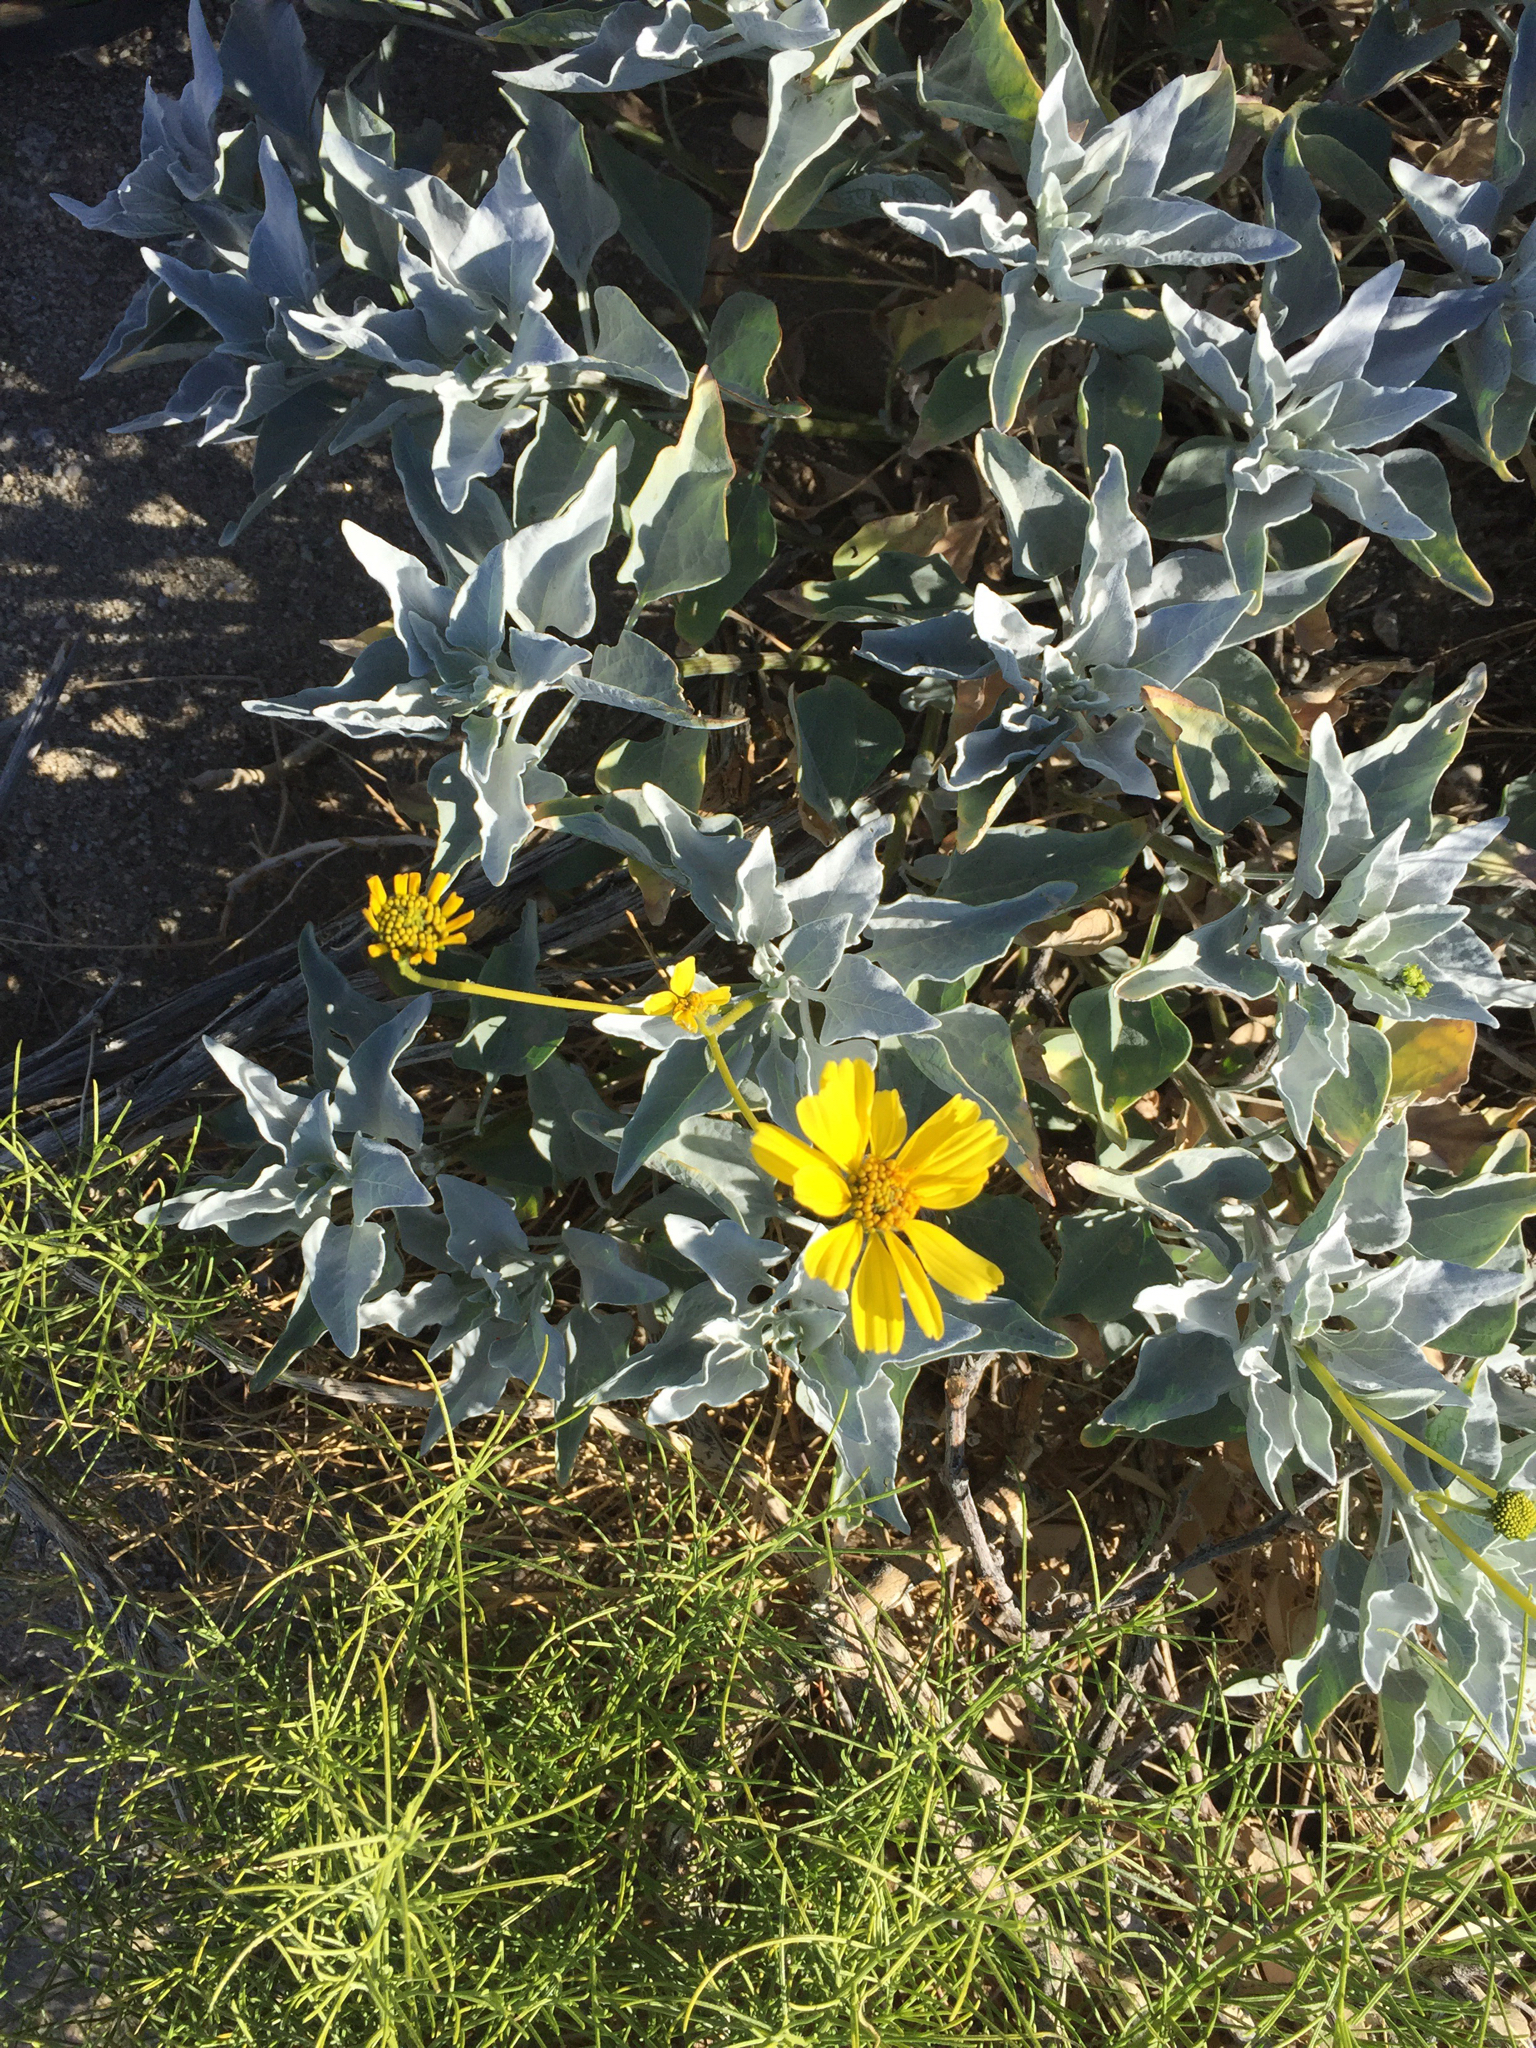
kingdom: Plantae
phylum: Tracheophyta
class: Magnoliopsida
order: Asterales
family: Asteraceae
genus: Encelia
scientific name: Encelia farinosa
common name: Brittlebush
